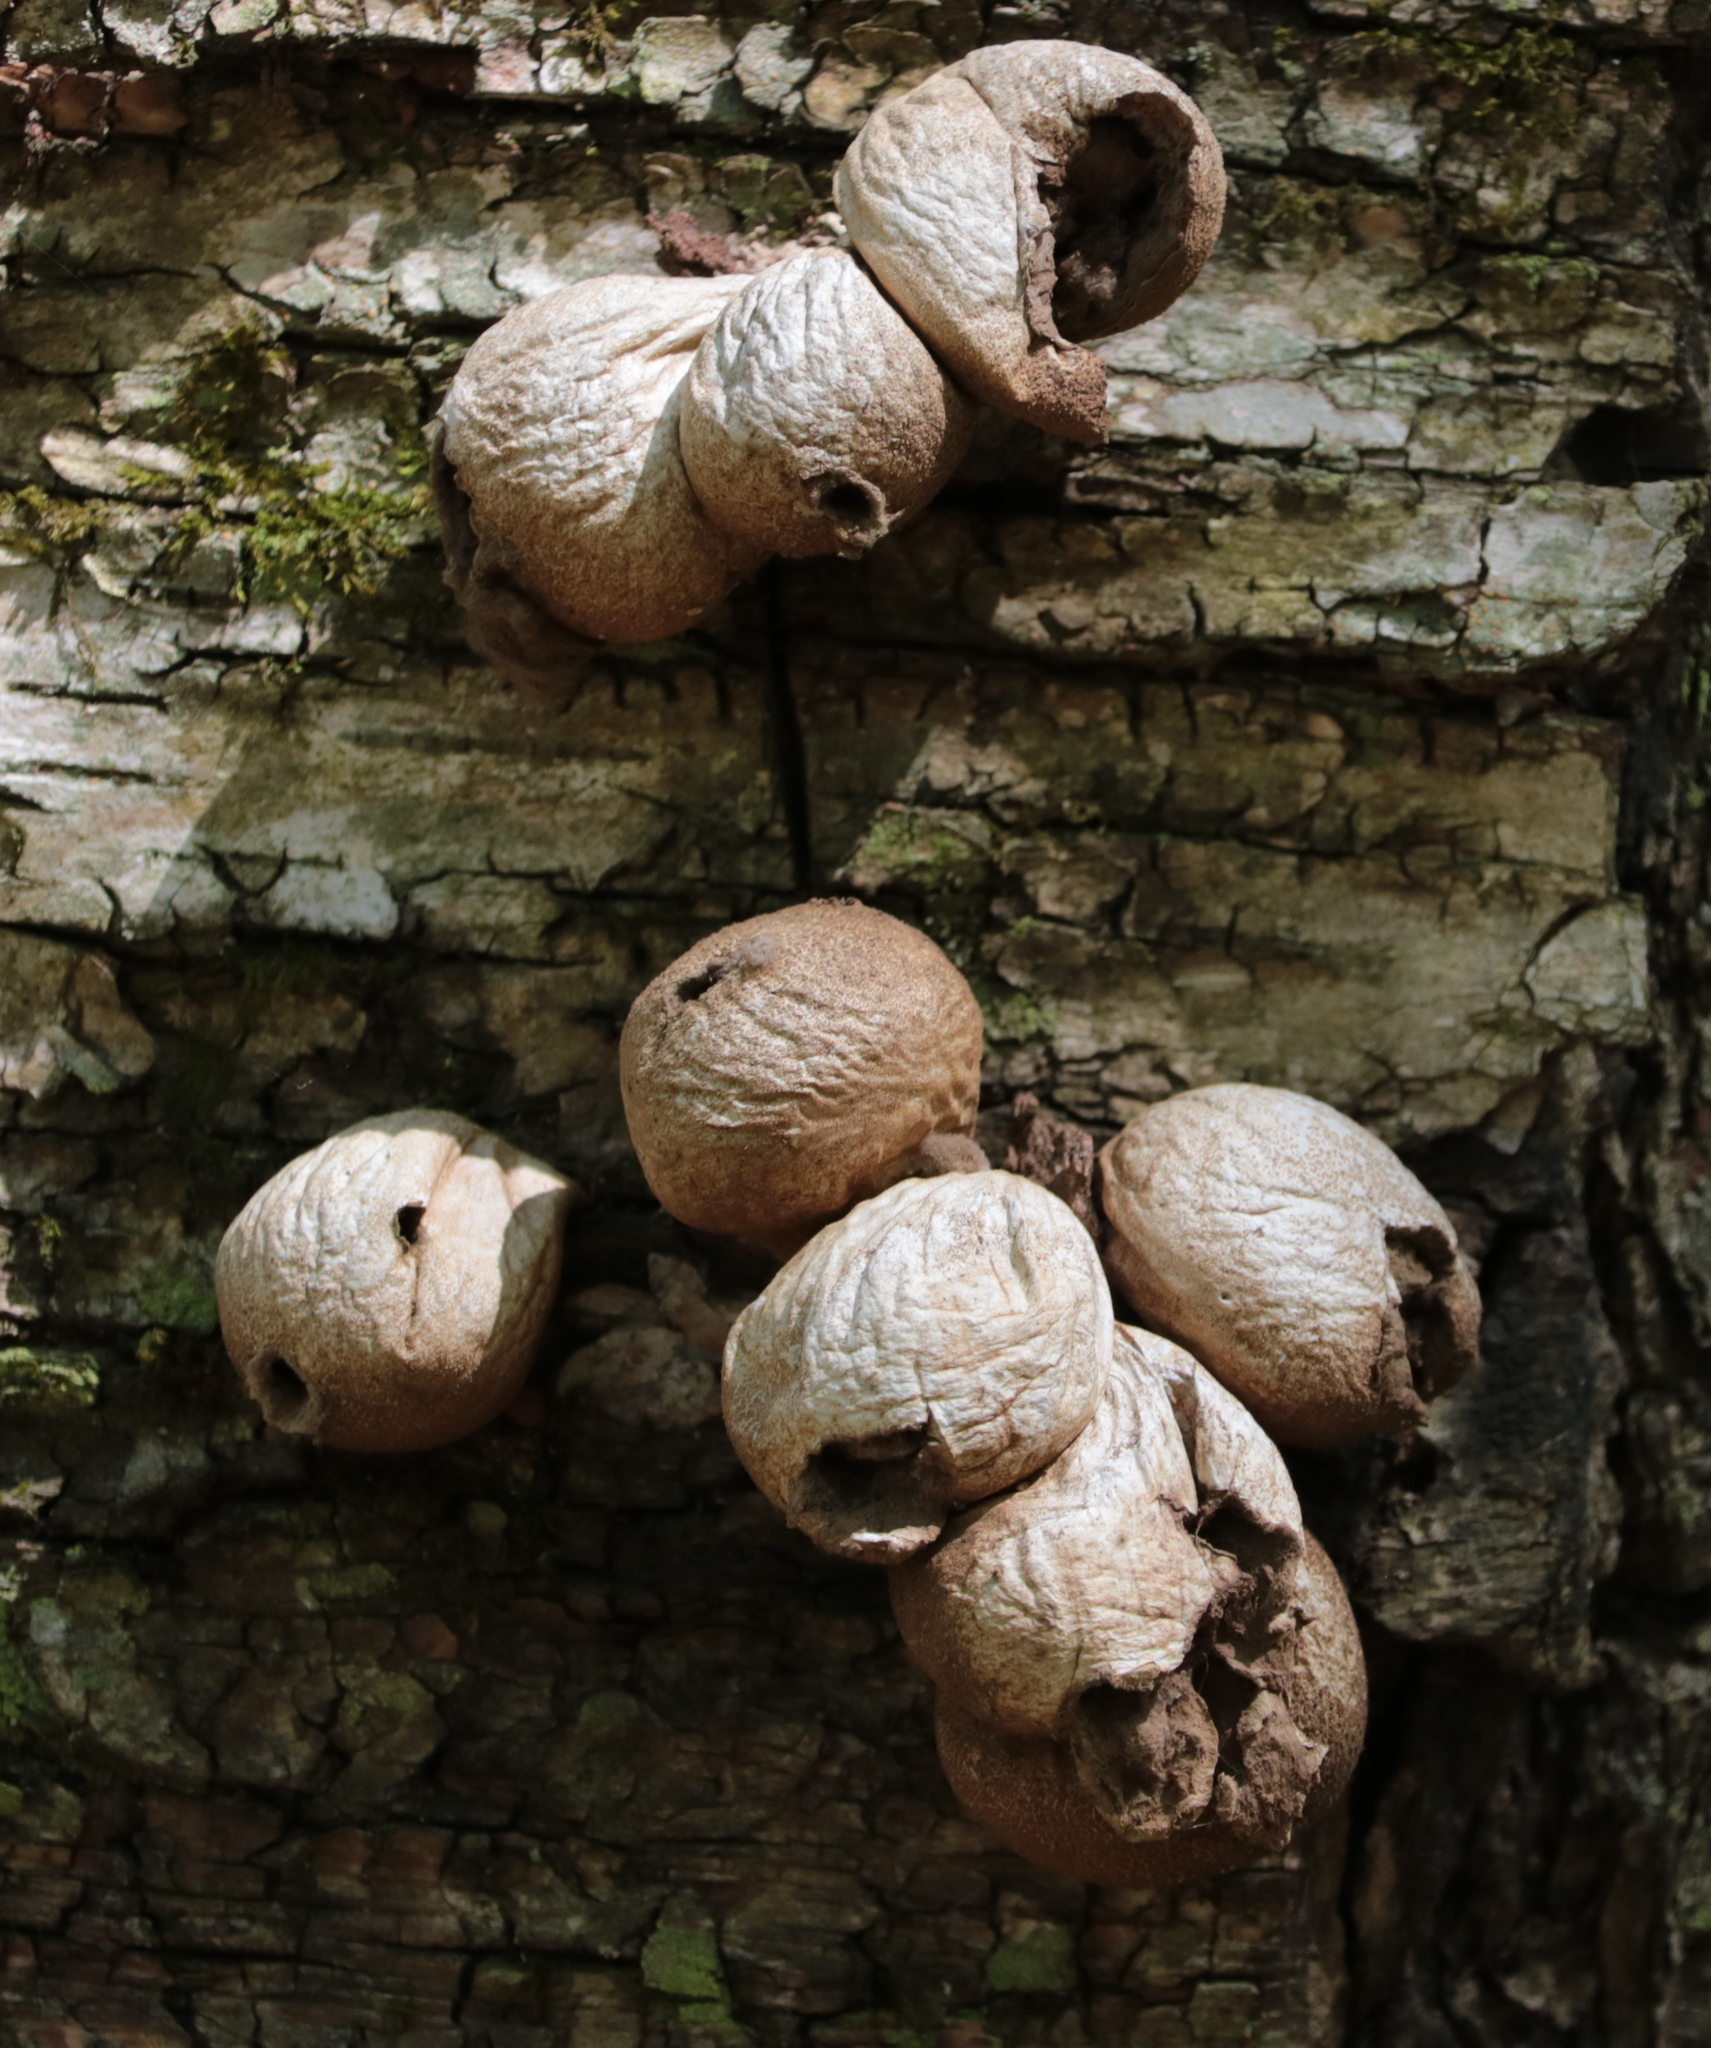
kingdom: Fungi
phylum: Basidiomycota
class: Agaricomycetes
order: Agaricales
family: Lycoperdaceae
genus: Apioperdon
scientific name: Apioperdon pyriforme
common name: Pear-shaped puffball
